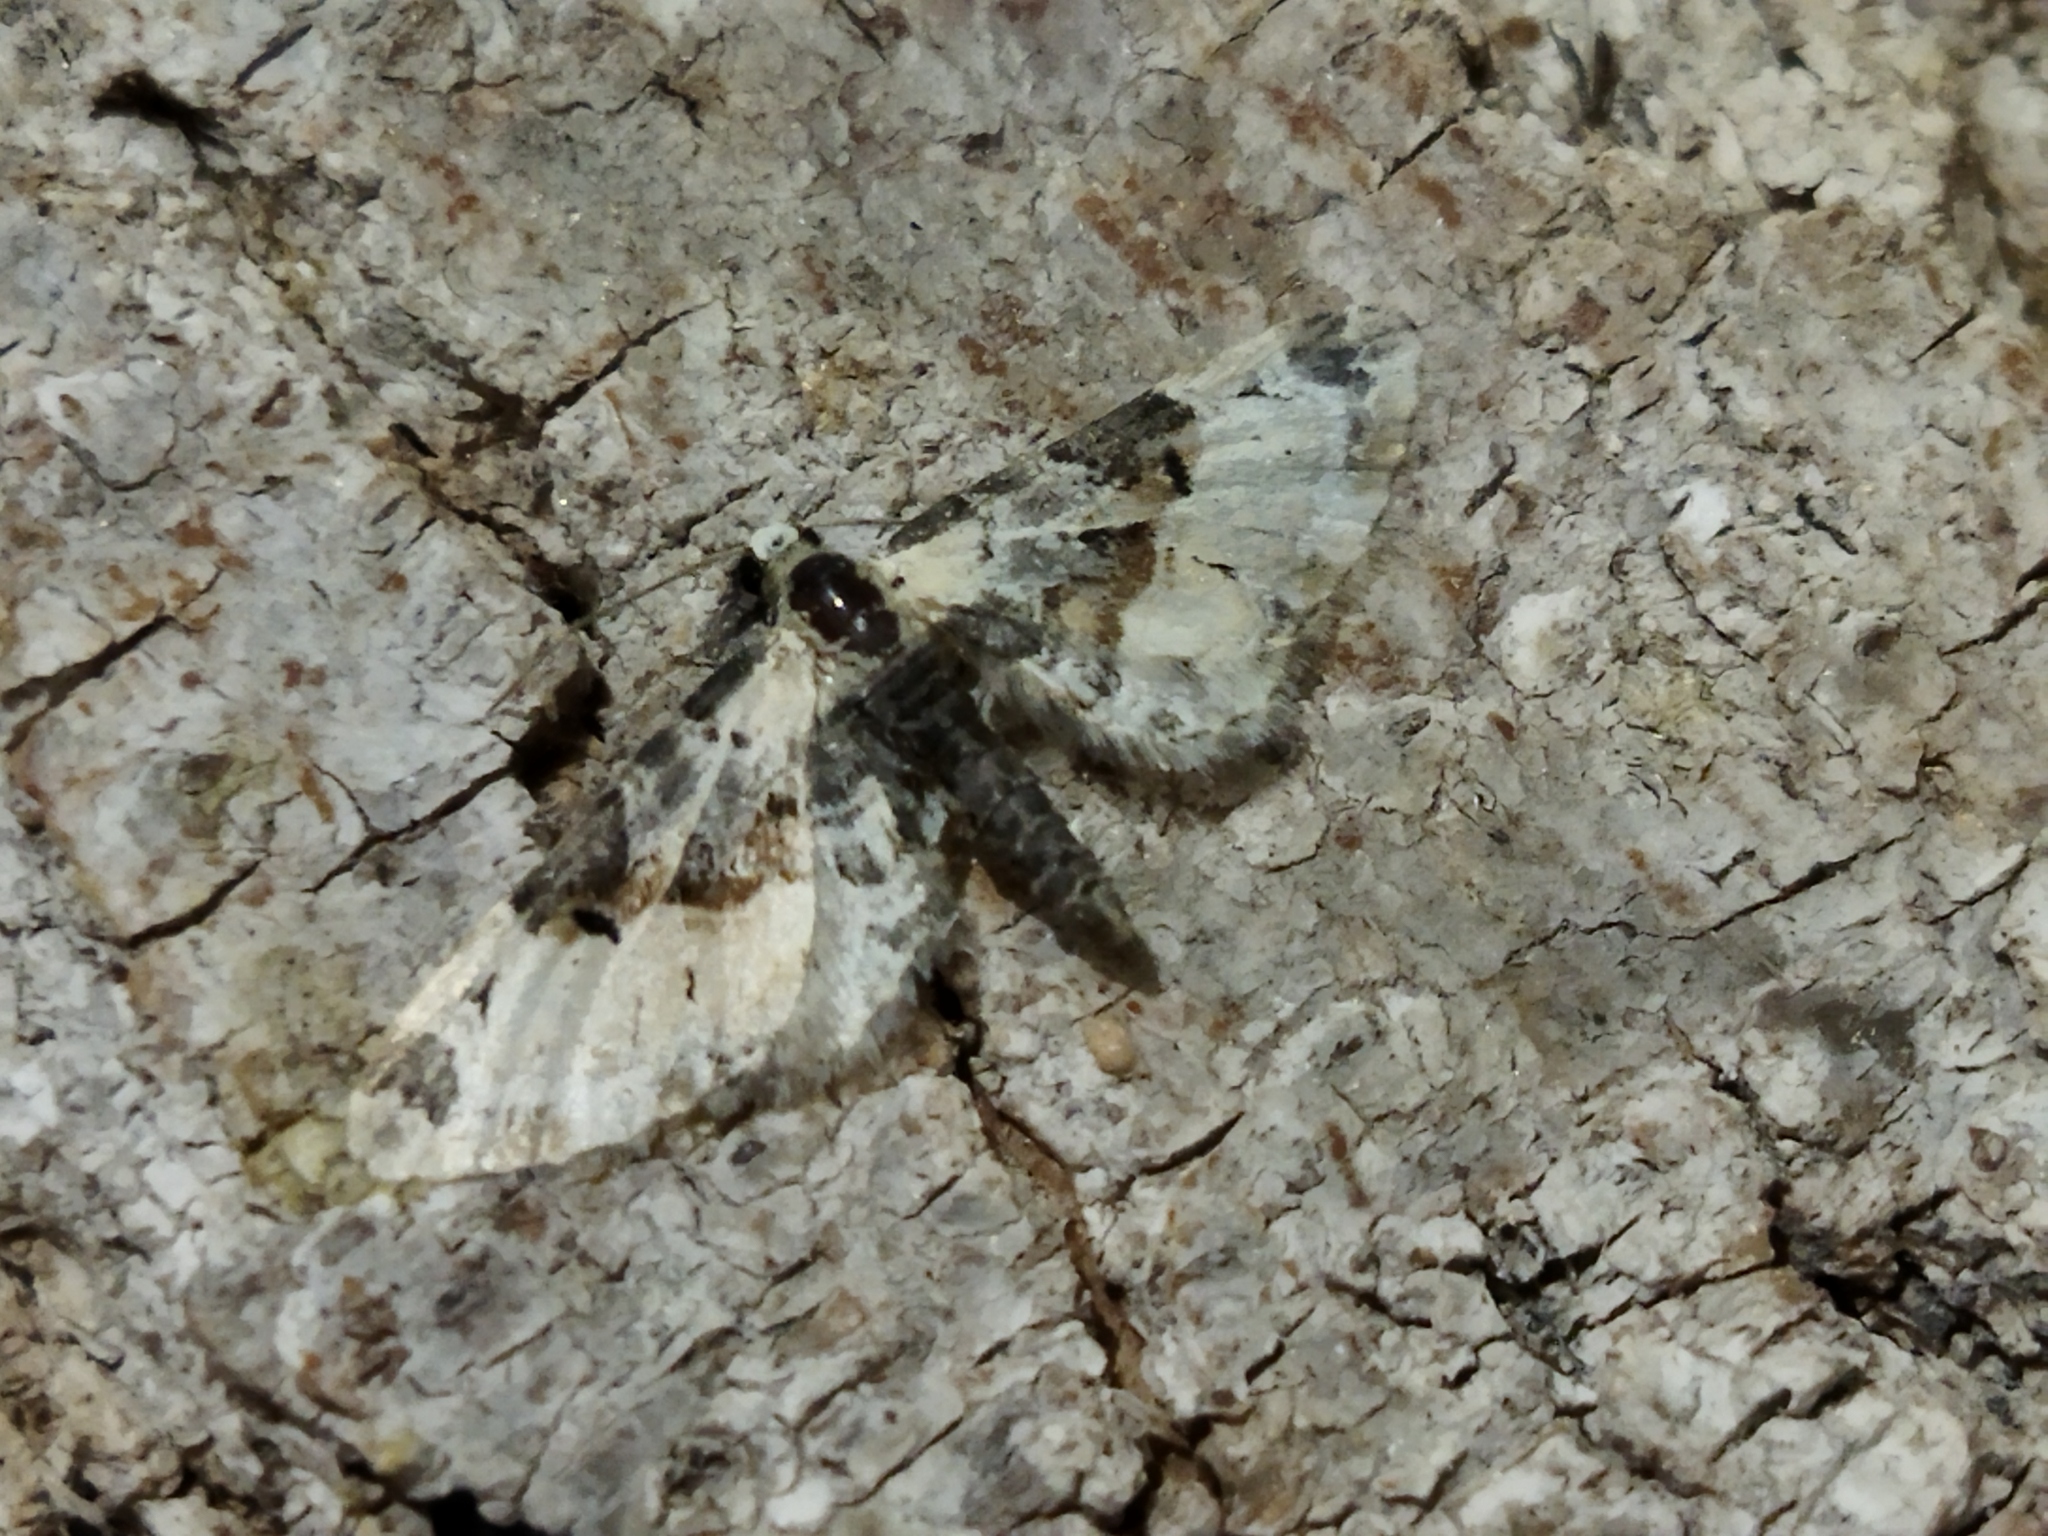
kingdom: Animalia
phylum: Arthropoda
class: Insecta
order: Lepidoptera
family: Geometridae
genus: Eupithecia
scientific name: Eupithecia extremata
